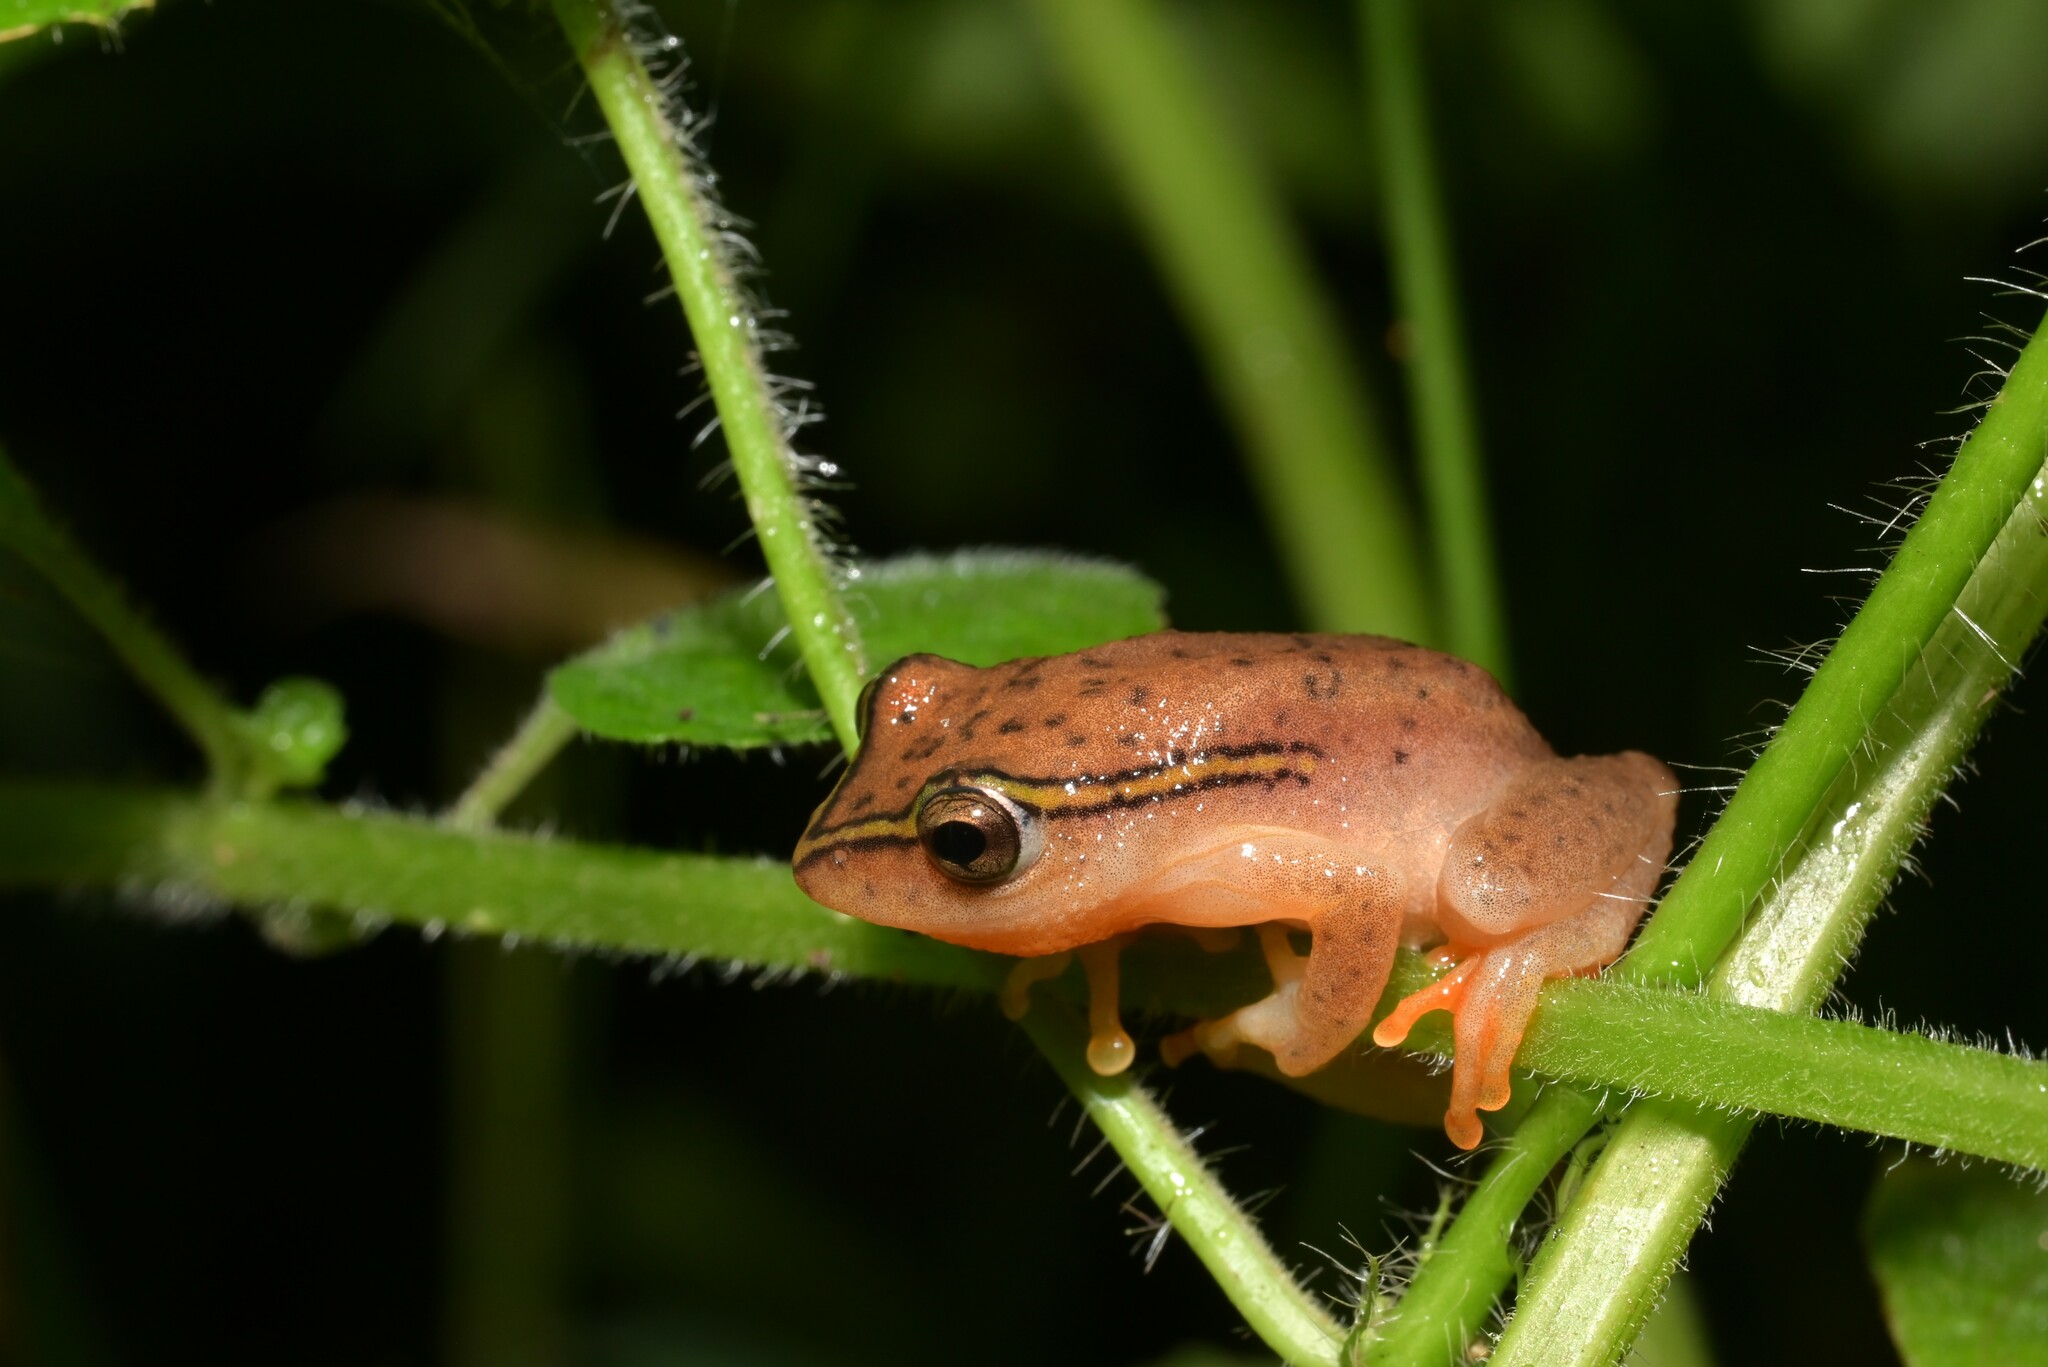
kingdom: Animalia
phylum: Chordata
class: Amphibia
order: Anura
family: Hyperoliidae
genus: Hyperolius
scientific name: Hyperolius substriatus
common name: Spotted reed frog
